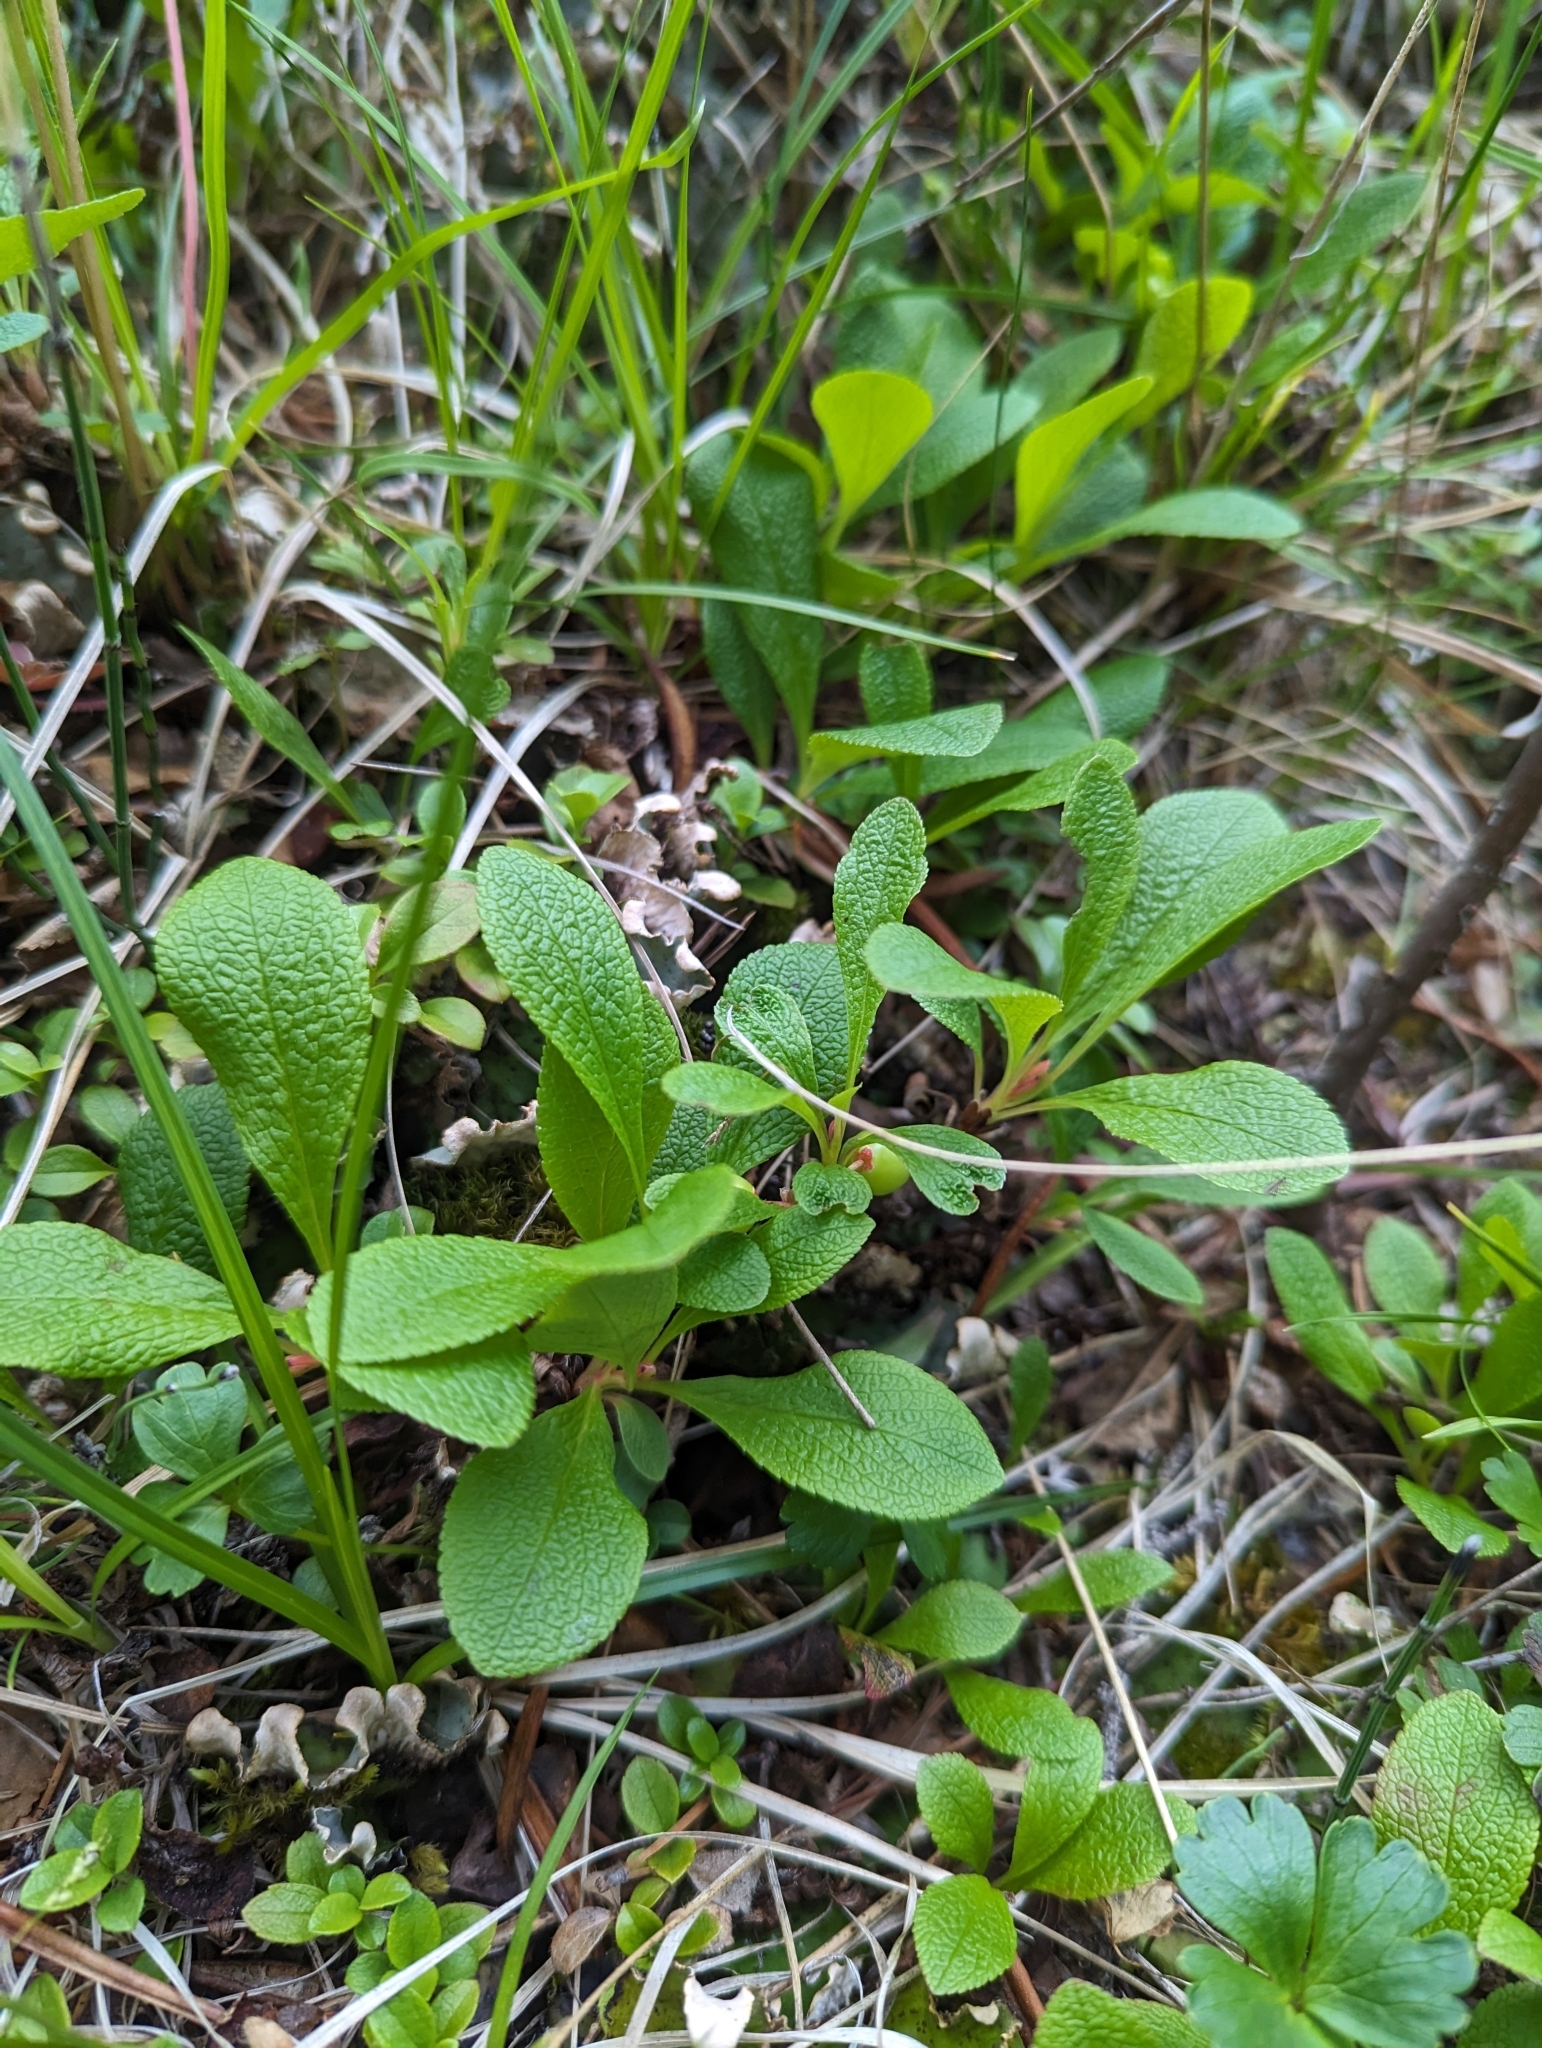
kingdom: Plantae
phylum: Tracheophyta
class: Magnoliopsida
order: Ericales
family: Ericaceae
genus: Arctostaphylos
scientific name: Arctostaphylos rubra
